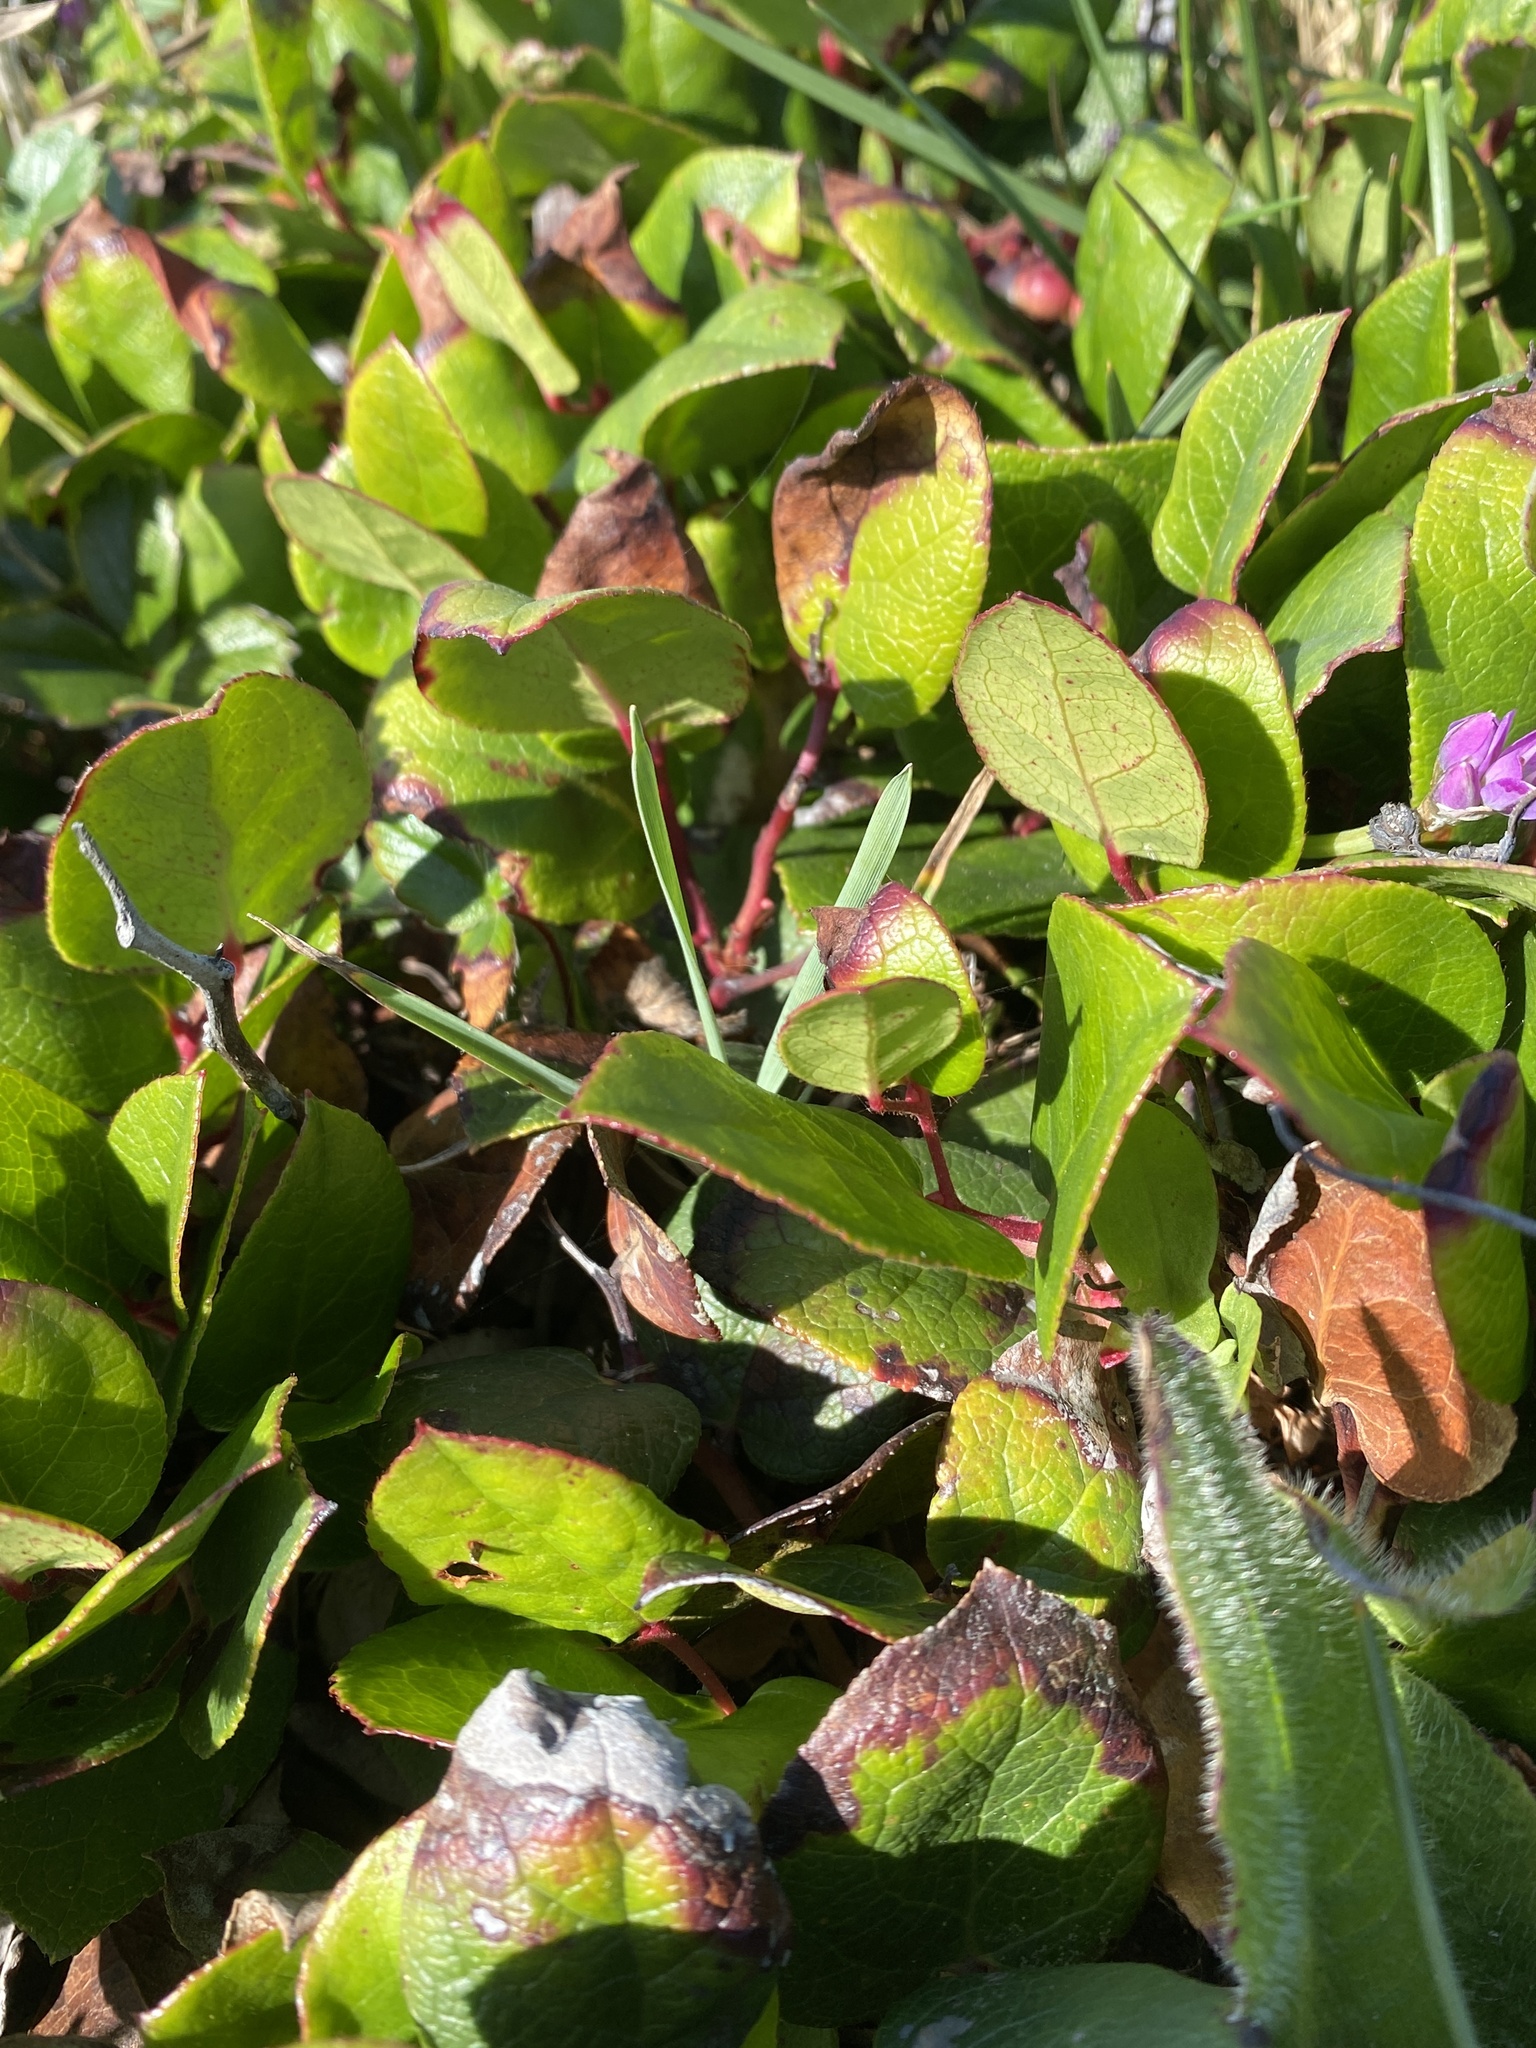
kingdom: Plantae
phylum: Tracheophyta
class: Magnoliopsida
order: Ericales
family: Ericaceae
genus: Gaultheria
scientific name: Gaultheria shallon
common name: Shallon
